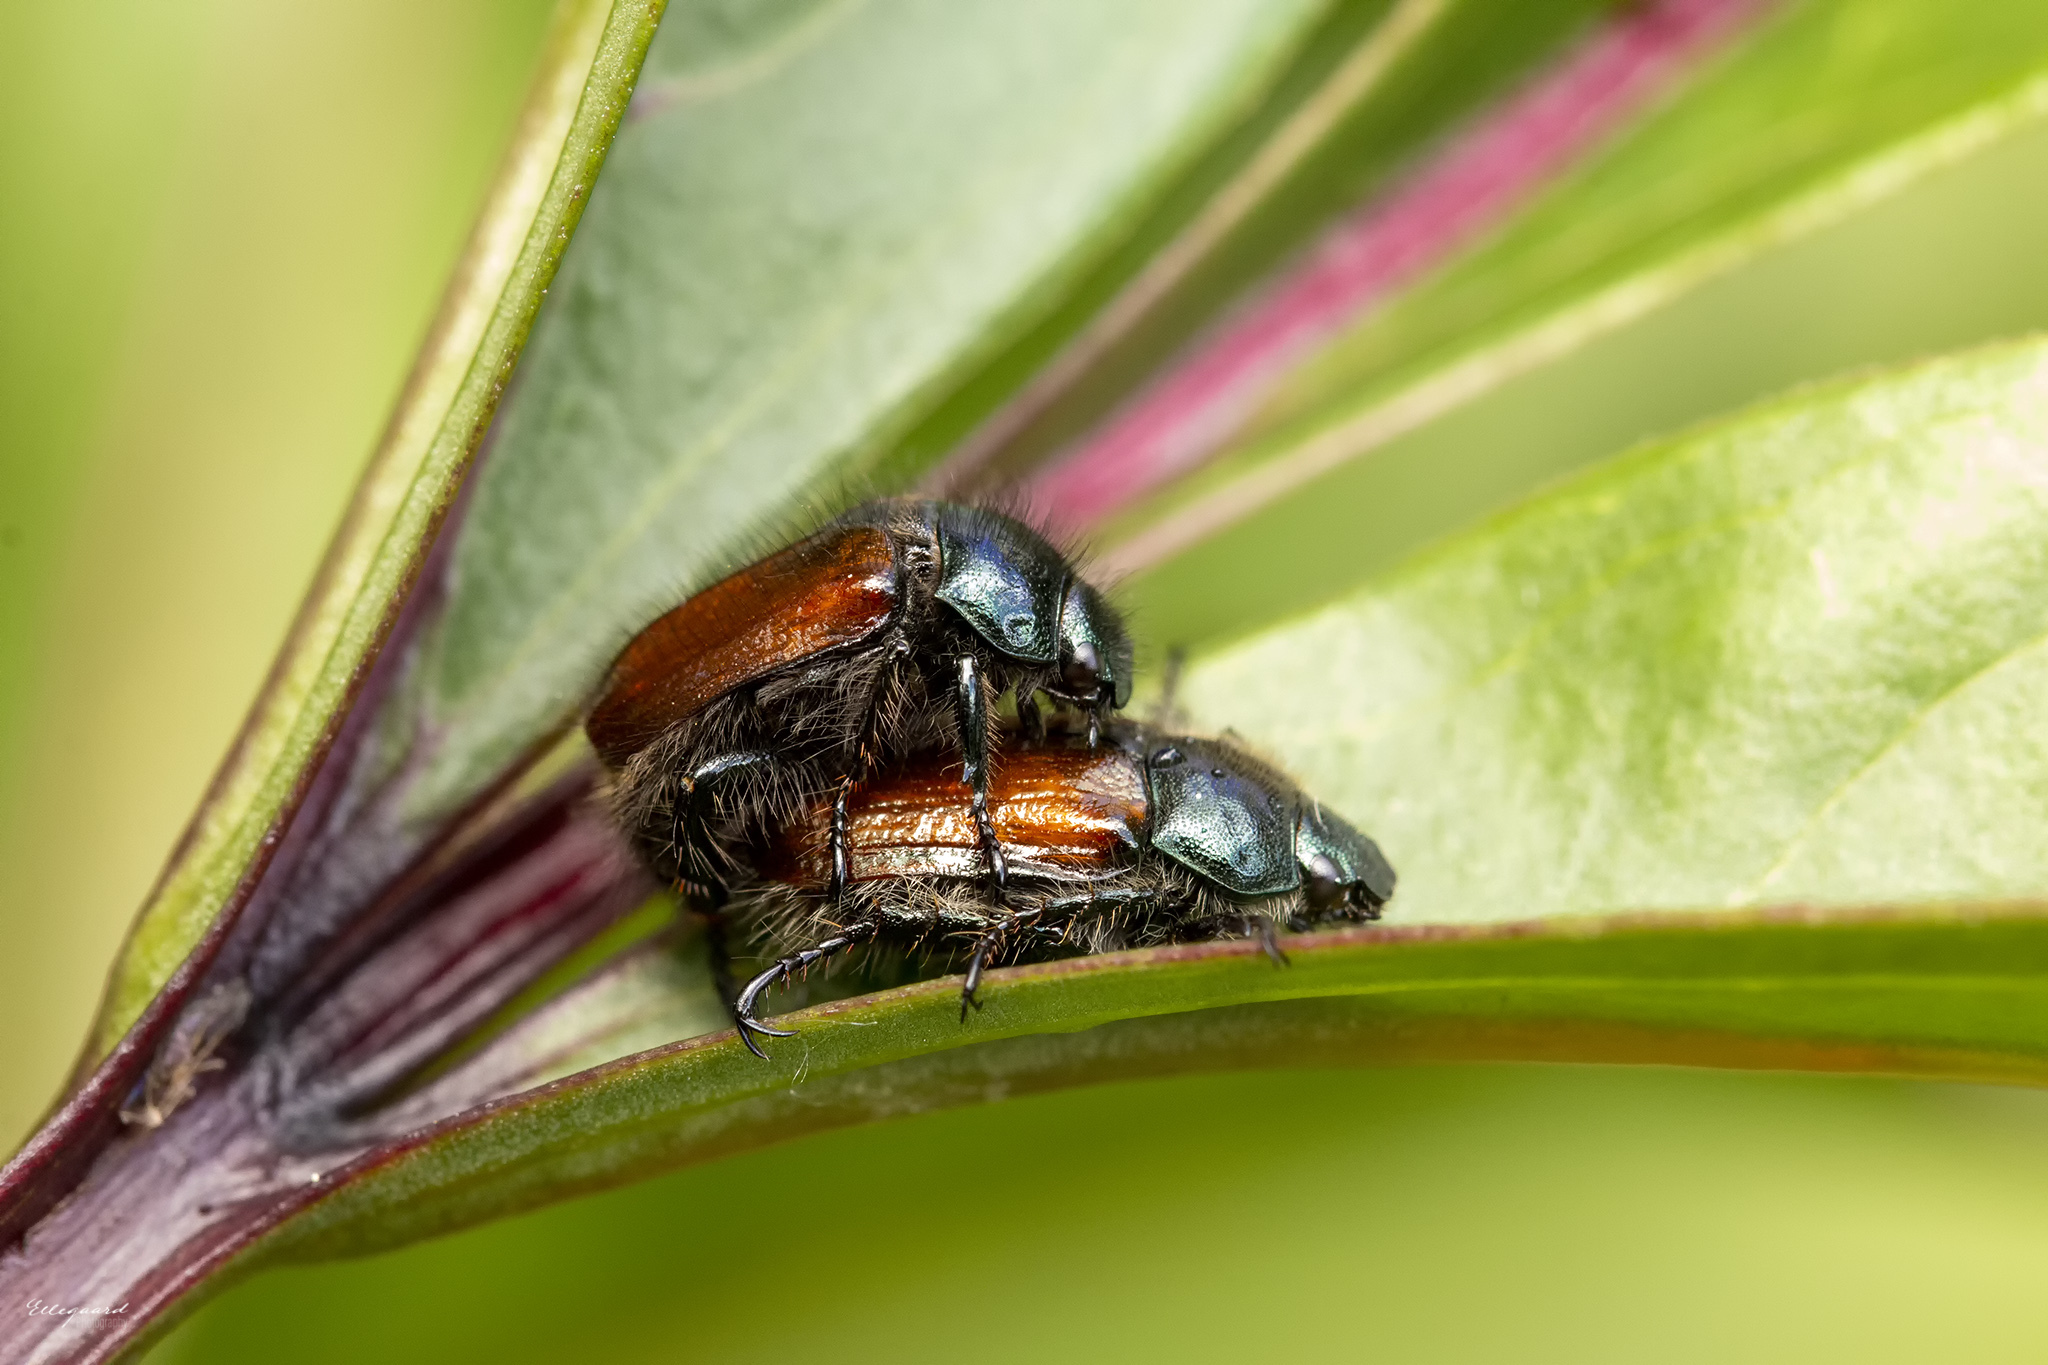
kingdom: Animalia
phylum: Arthropoda
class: Insecta
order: Coleoptera
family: Scarabaeidae
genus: Phyllopertha
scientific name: Phyllopertha horticola
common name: Garden chafer
